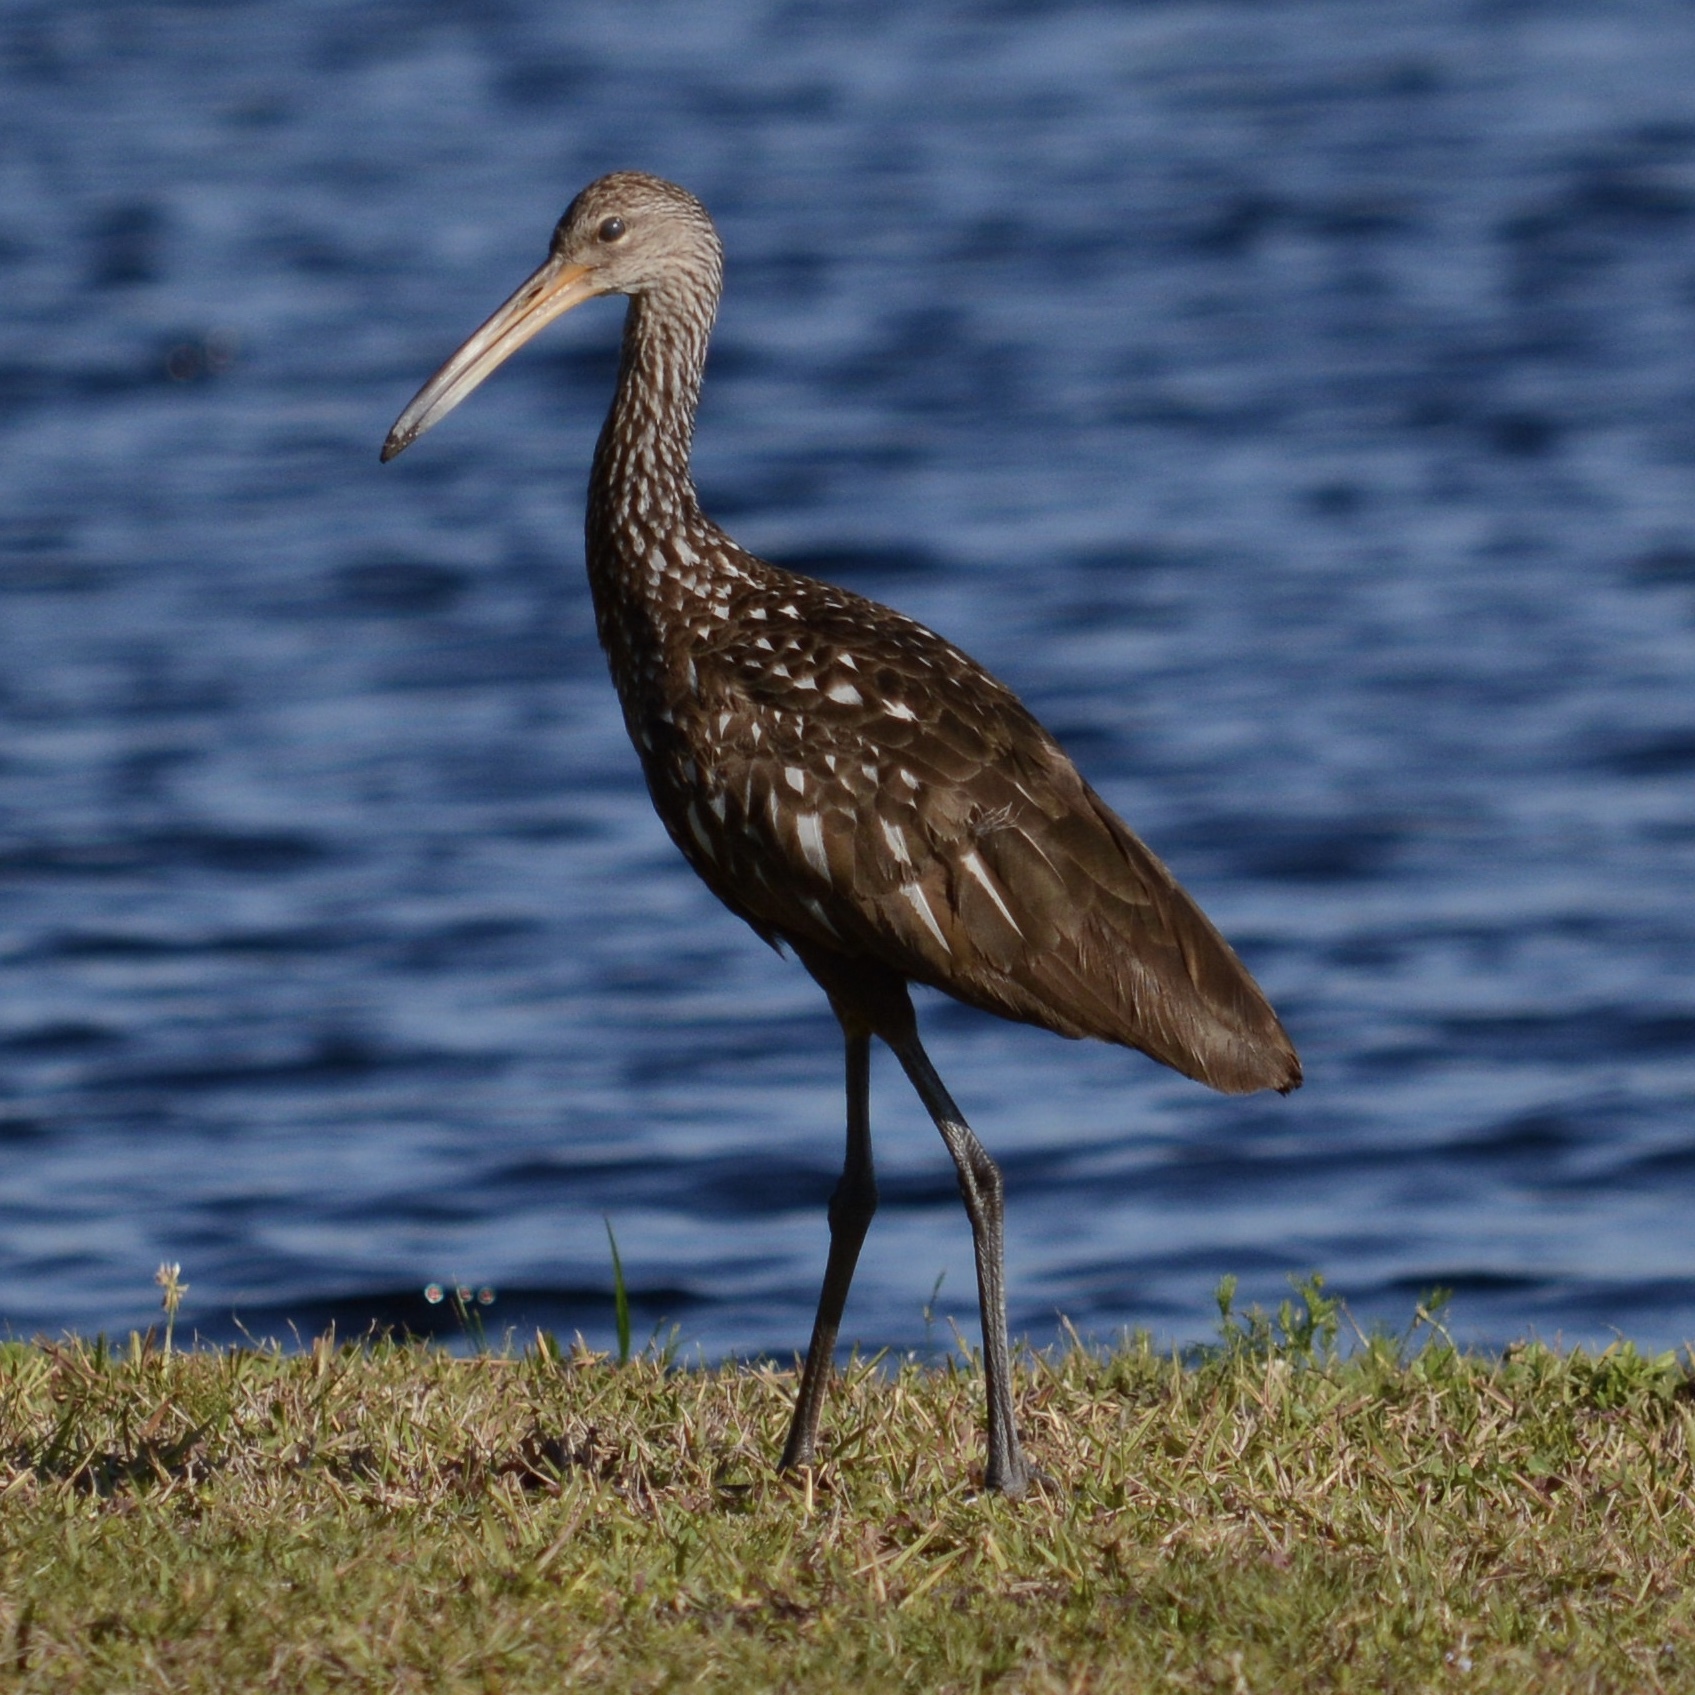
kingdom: Animalia
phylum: Chordata
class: Aves
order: Gruiformes
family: Aramidae
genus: Aramus
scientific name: Aramus guarauna
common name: Limpkin
